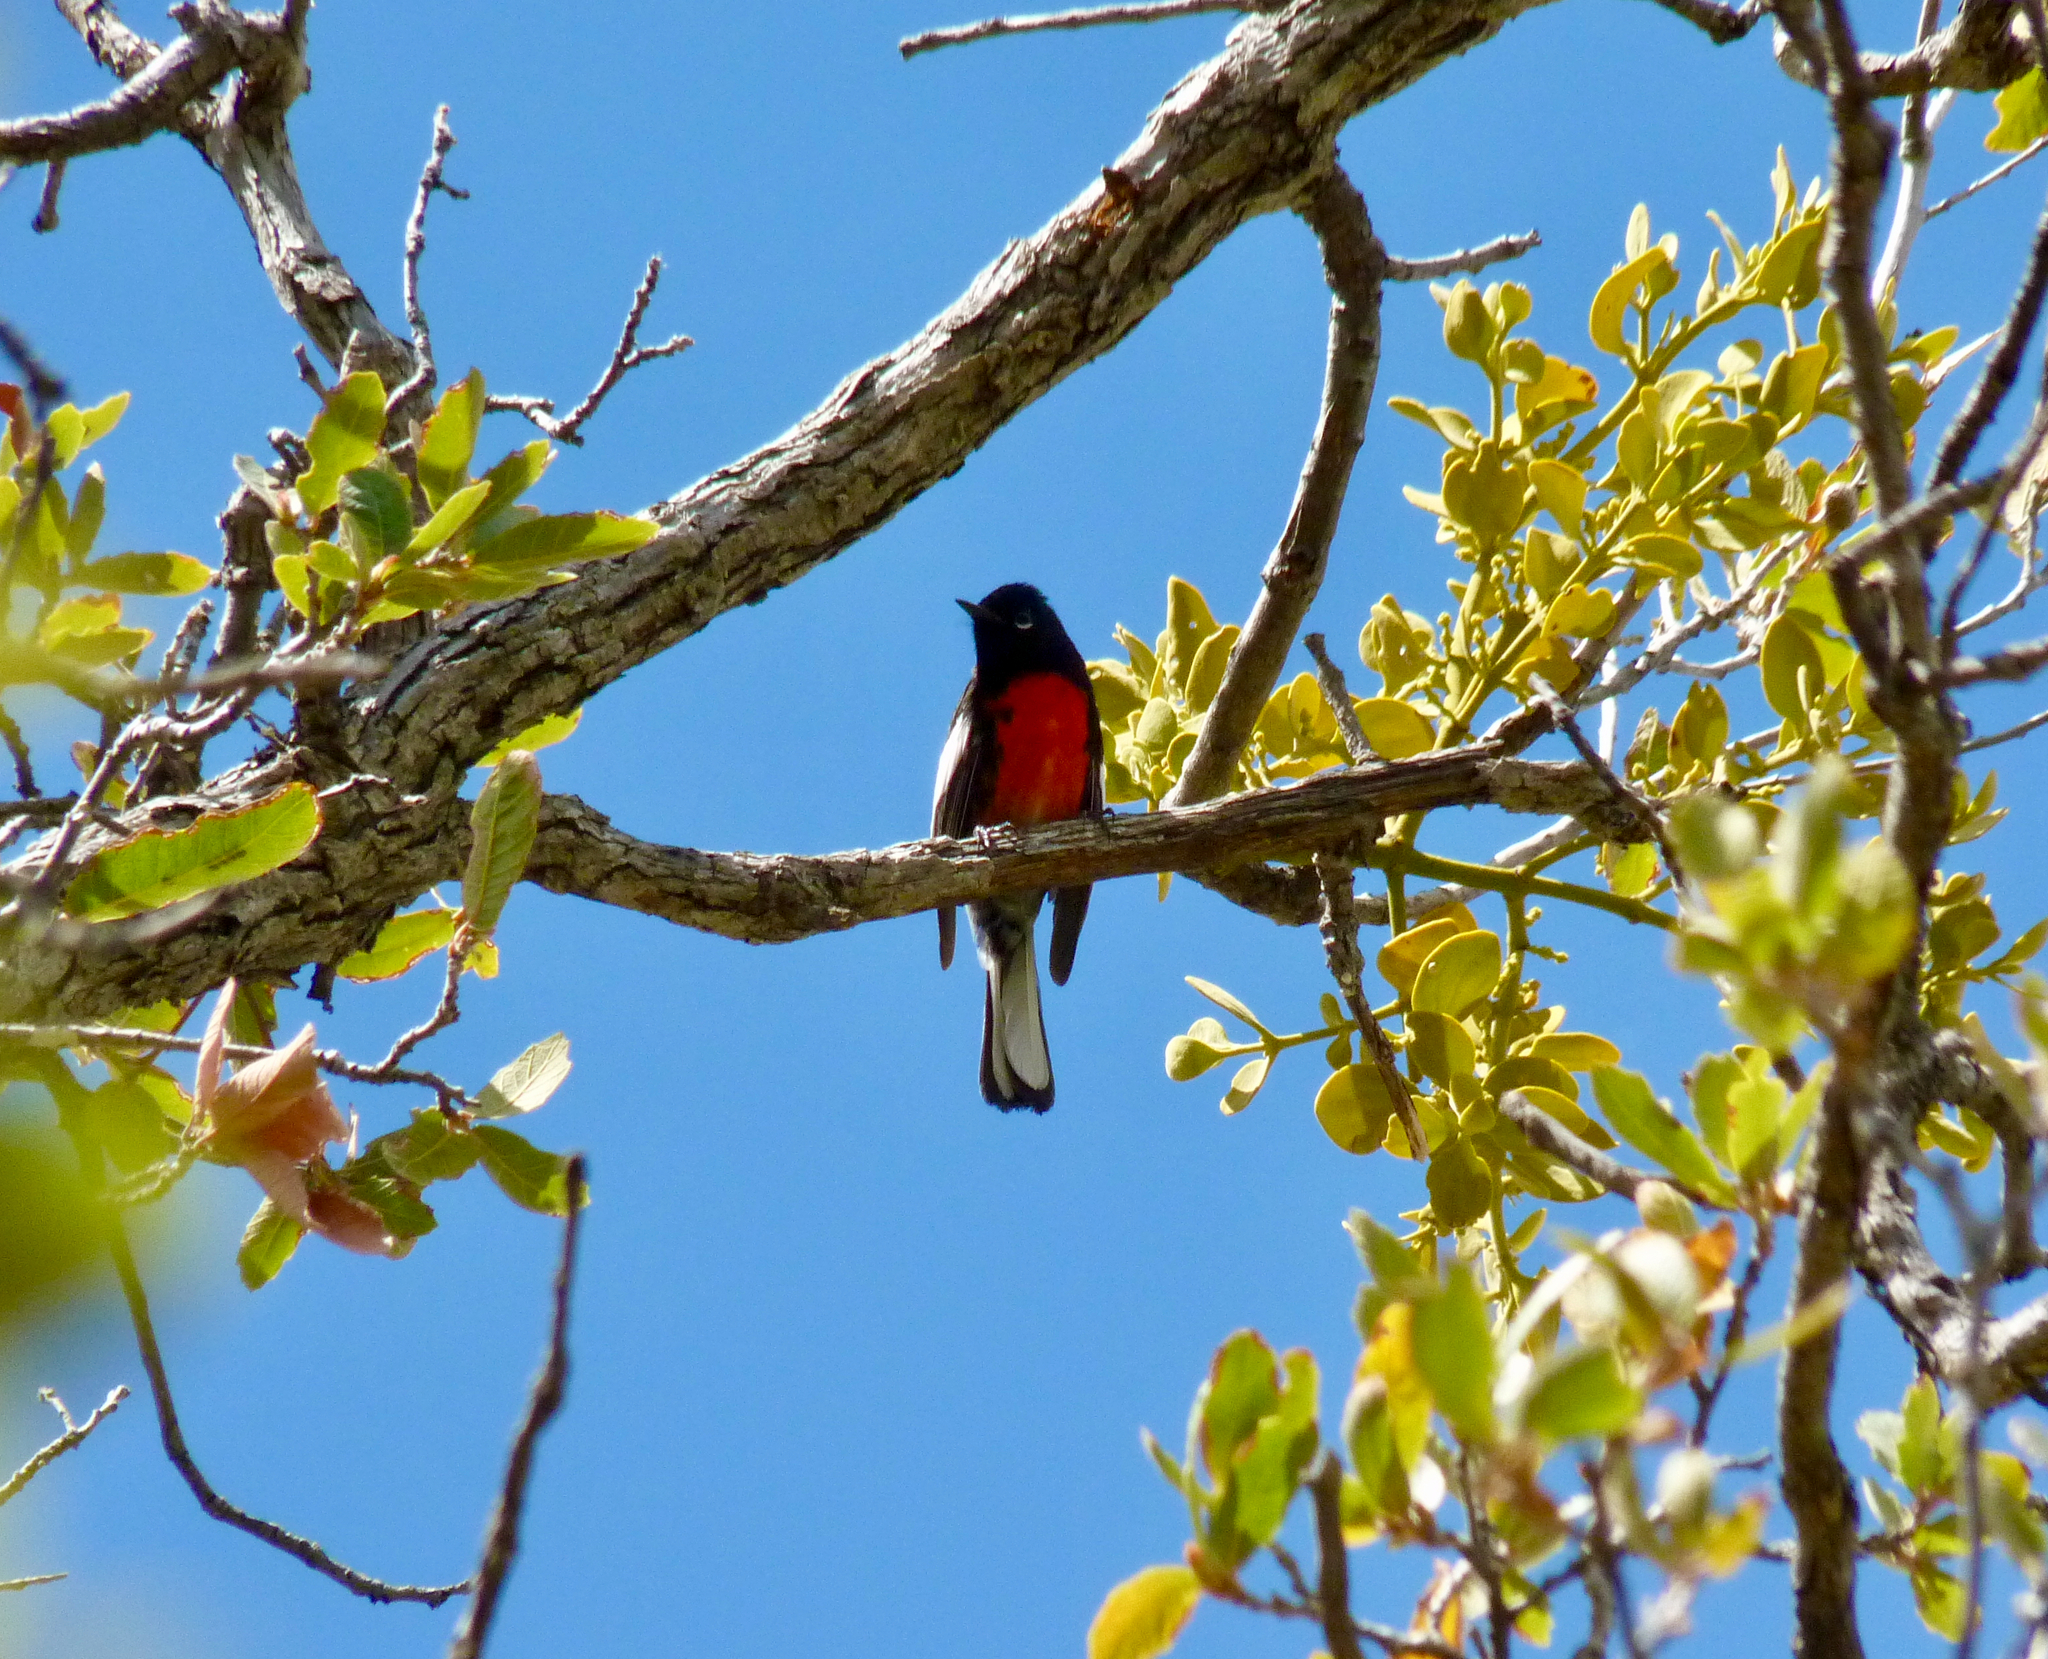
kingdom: Animalia
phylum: Chordata
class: Aves
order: Passeriformes
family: Parulidae
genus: Myioborus
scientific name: Myioborus pictus
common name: Painted whitestart
